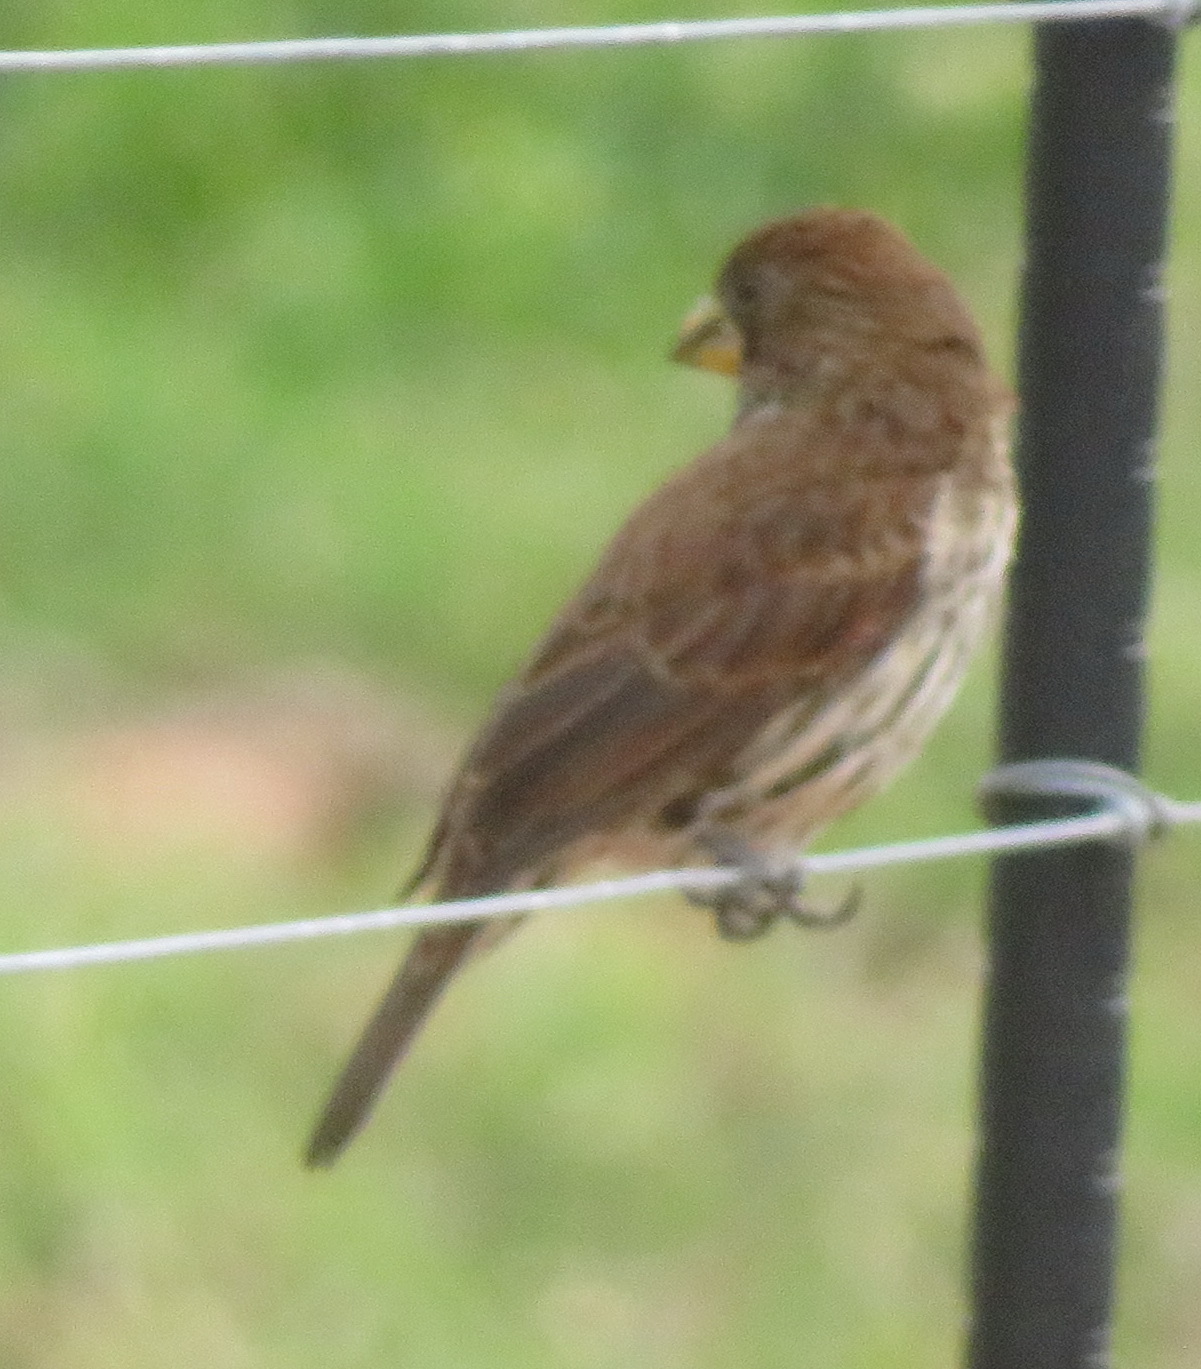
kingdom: Animalia
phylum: Chordata
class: Aves
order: Passeriformes
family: Ploceidae
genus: Amblyospiza
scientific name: Amblyospiza albifrons
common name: Thick-billed weaver
